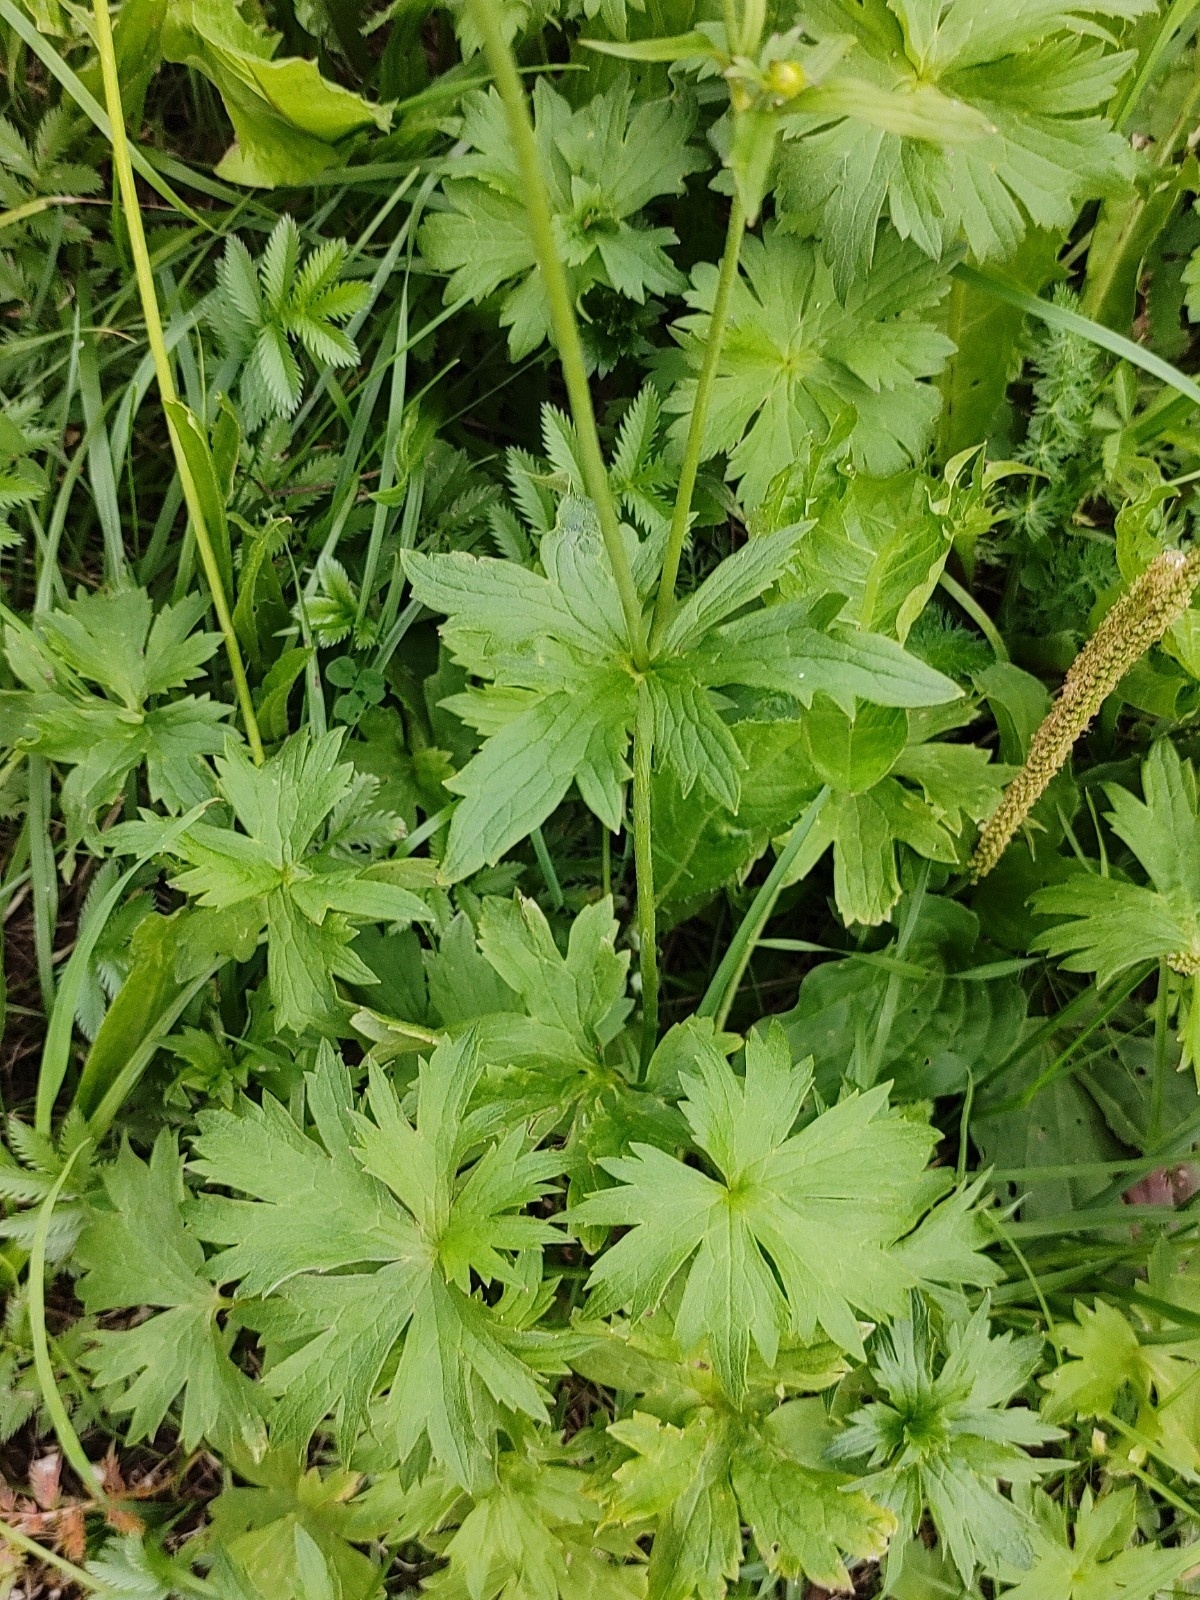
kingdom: Plantae
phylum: Tracheophyta
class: Magnoliopsida
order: Ranunculales
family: Ranunculaceae
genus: Ranunculus
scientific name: Ranunculus acris
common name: Meadow buttercup
